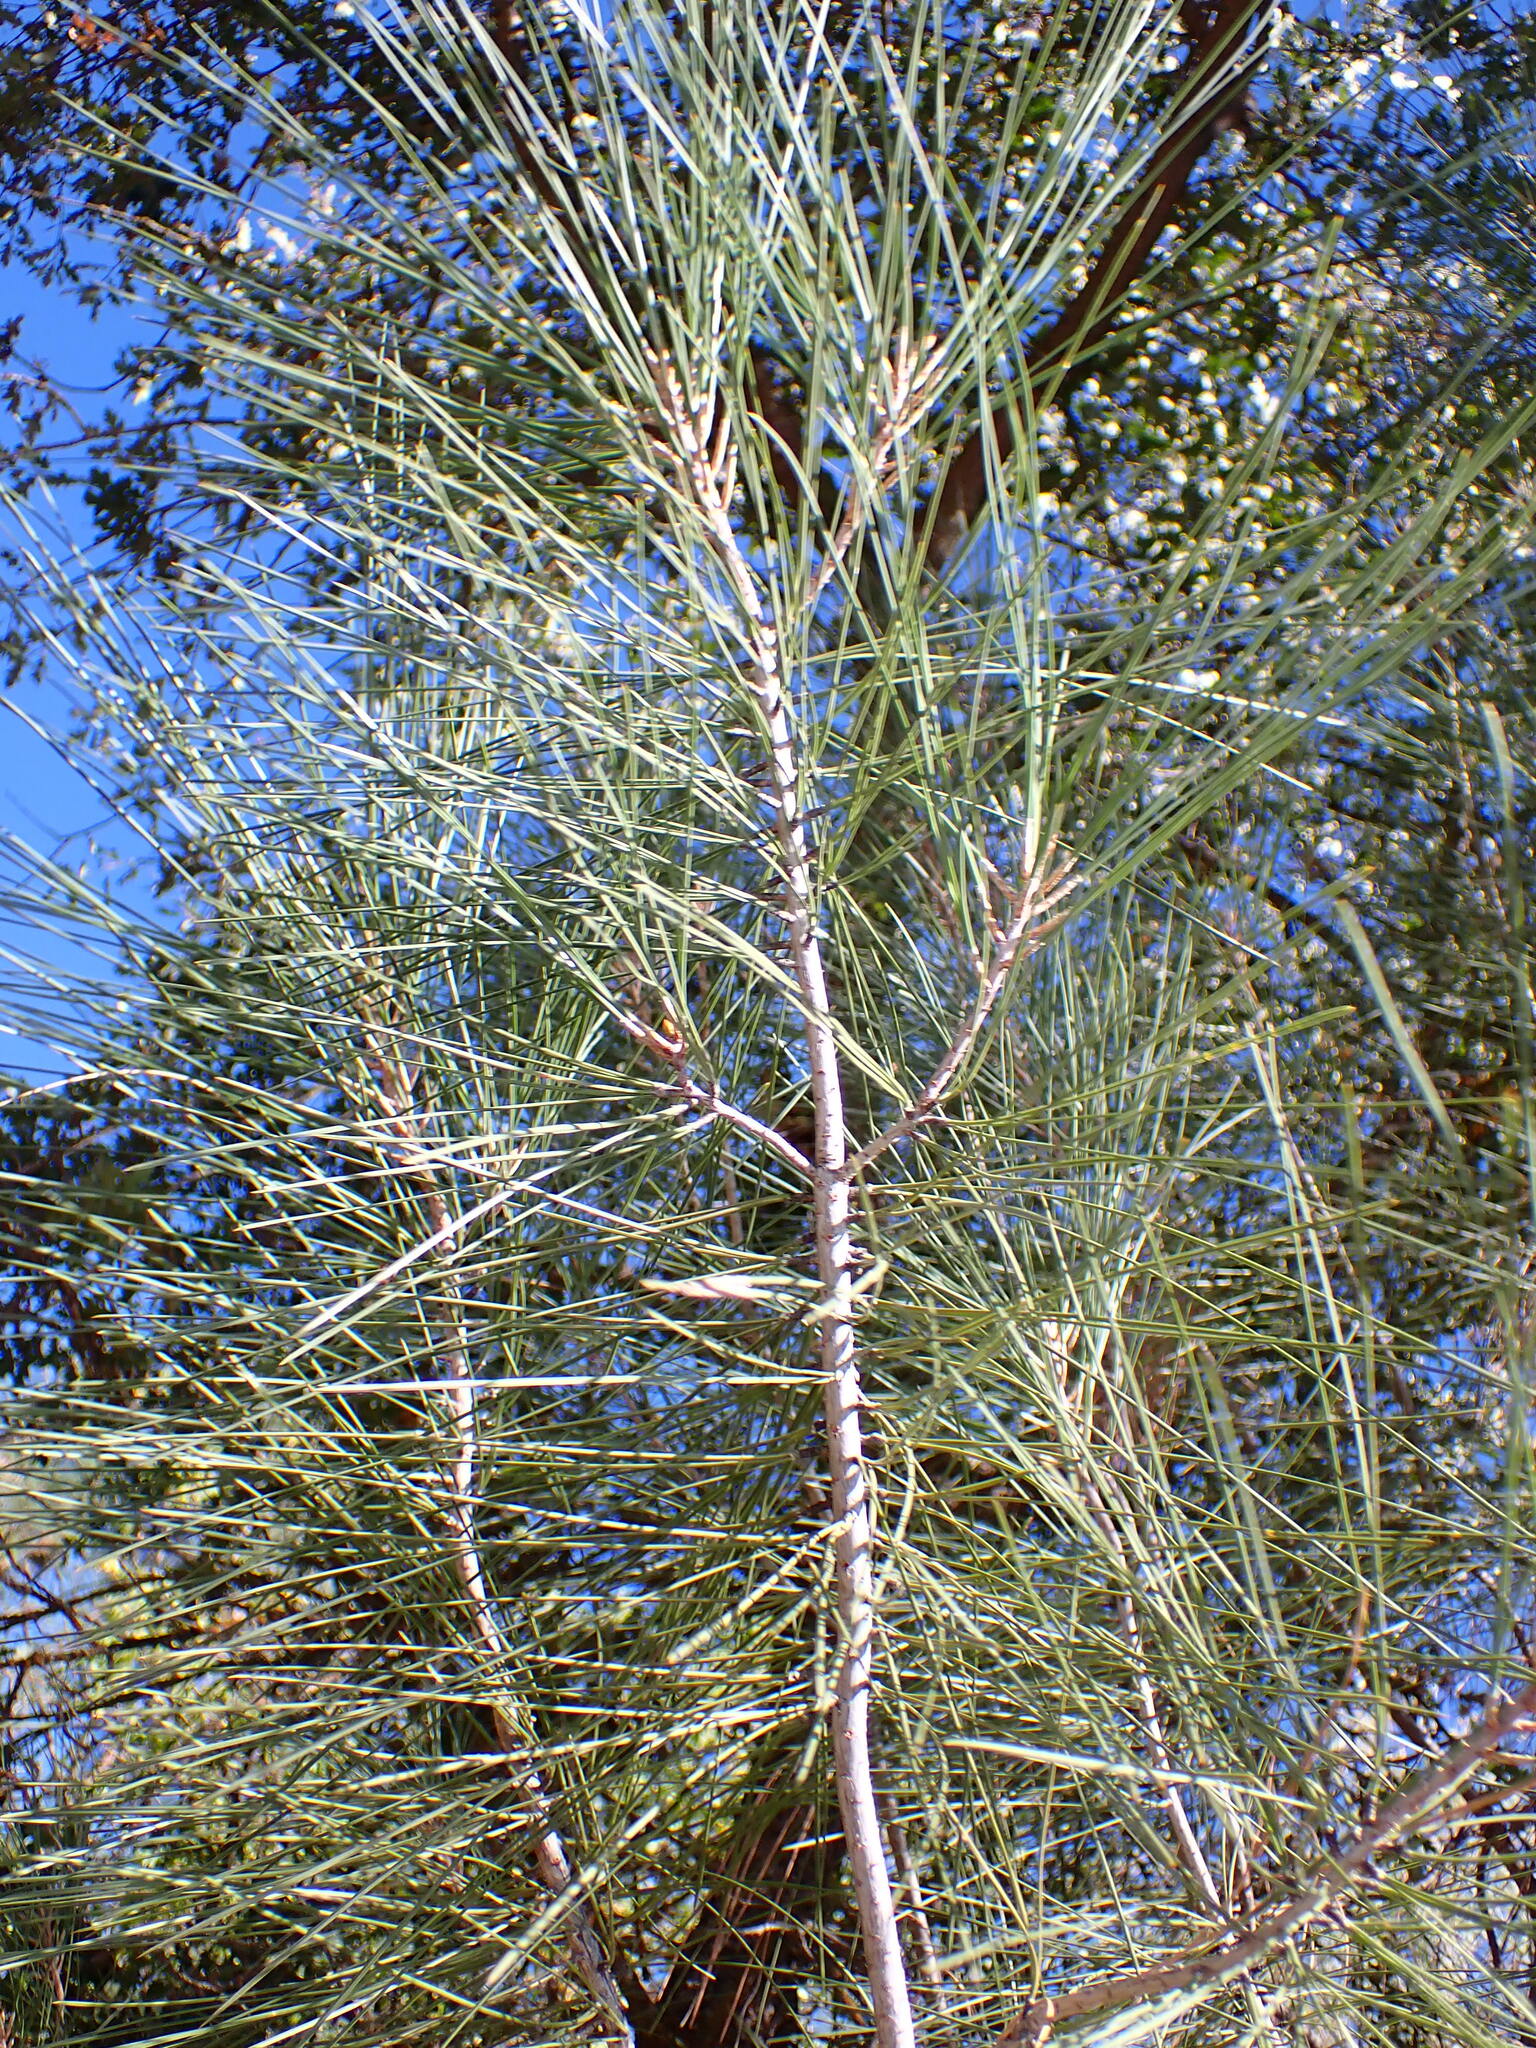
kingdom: Plantae
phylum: Tracheophyta
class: Pinopsida
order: Pinales
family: Pinaceae
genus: Pinus
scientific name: Pinus sabiniana
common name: Bull pine
